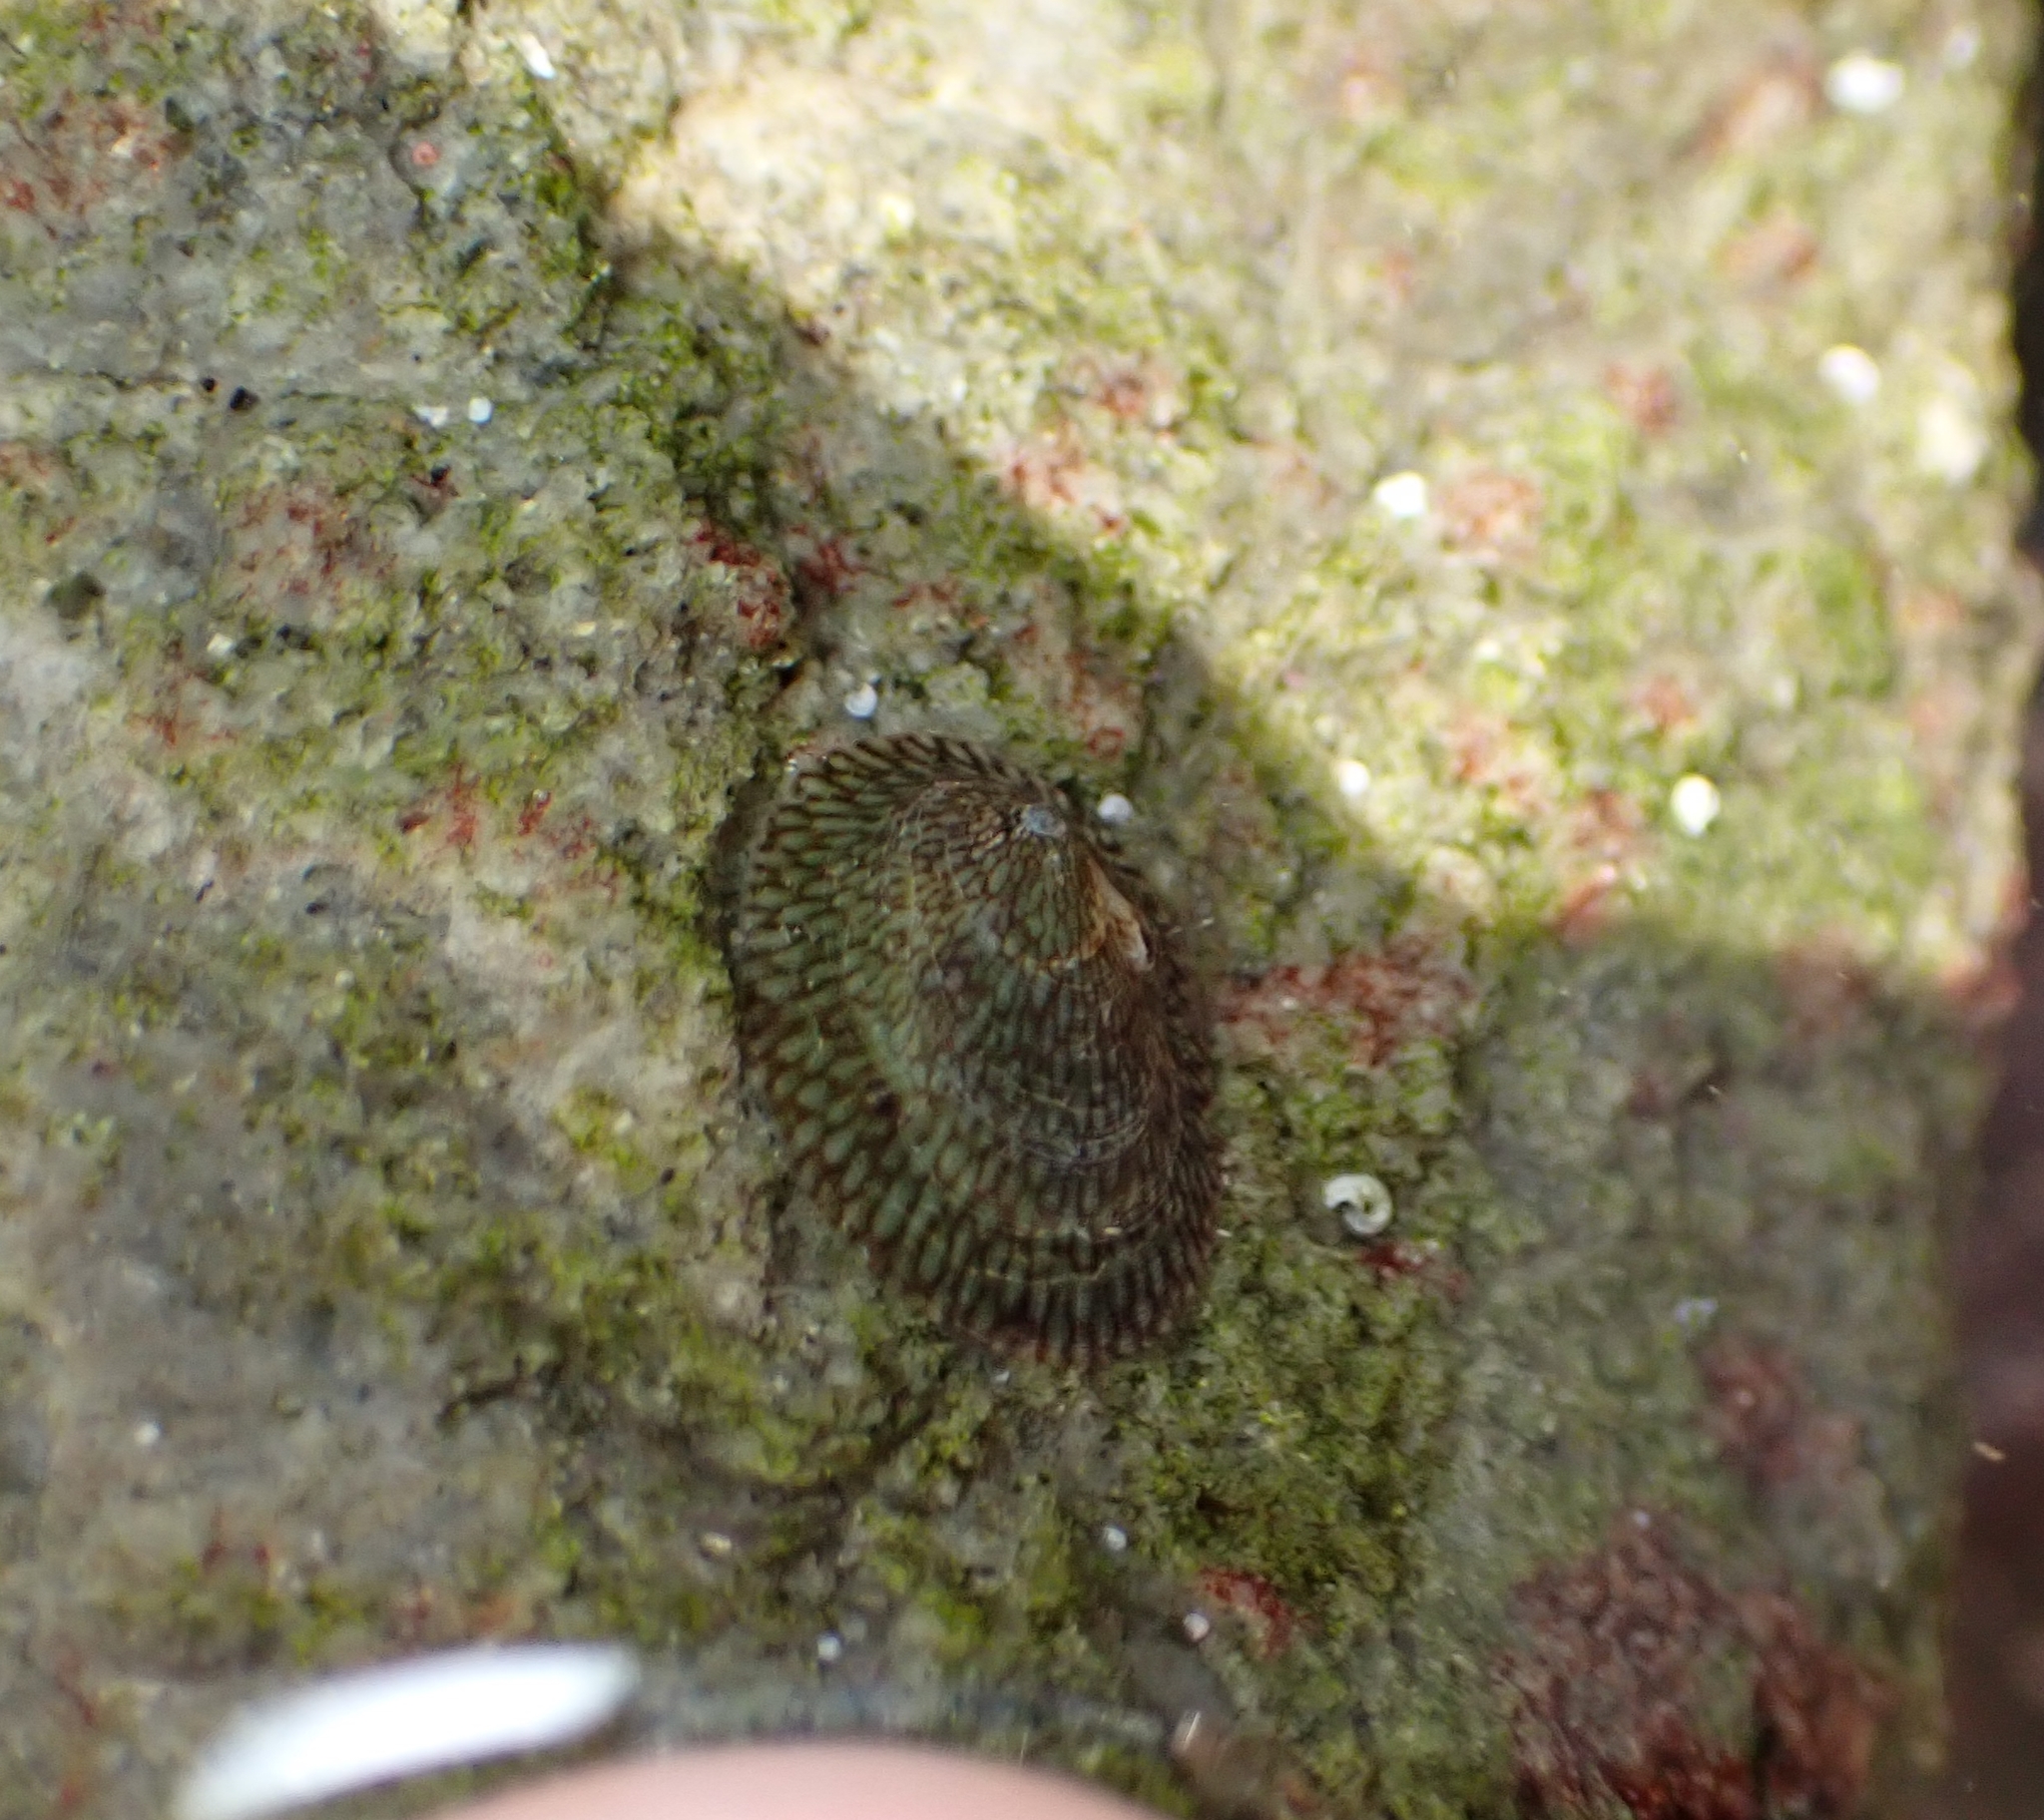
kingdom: Animalia
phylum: Mollusca
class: Gastropoda
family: Lottiidae
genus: Notoacmea
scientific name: Notoacmea
